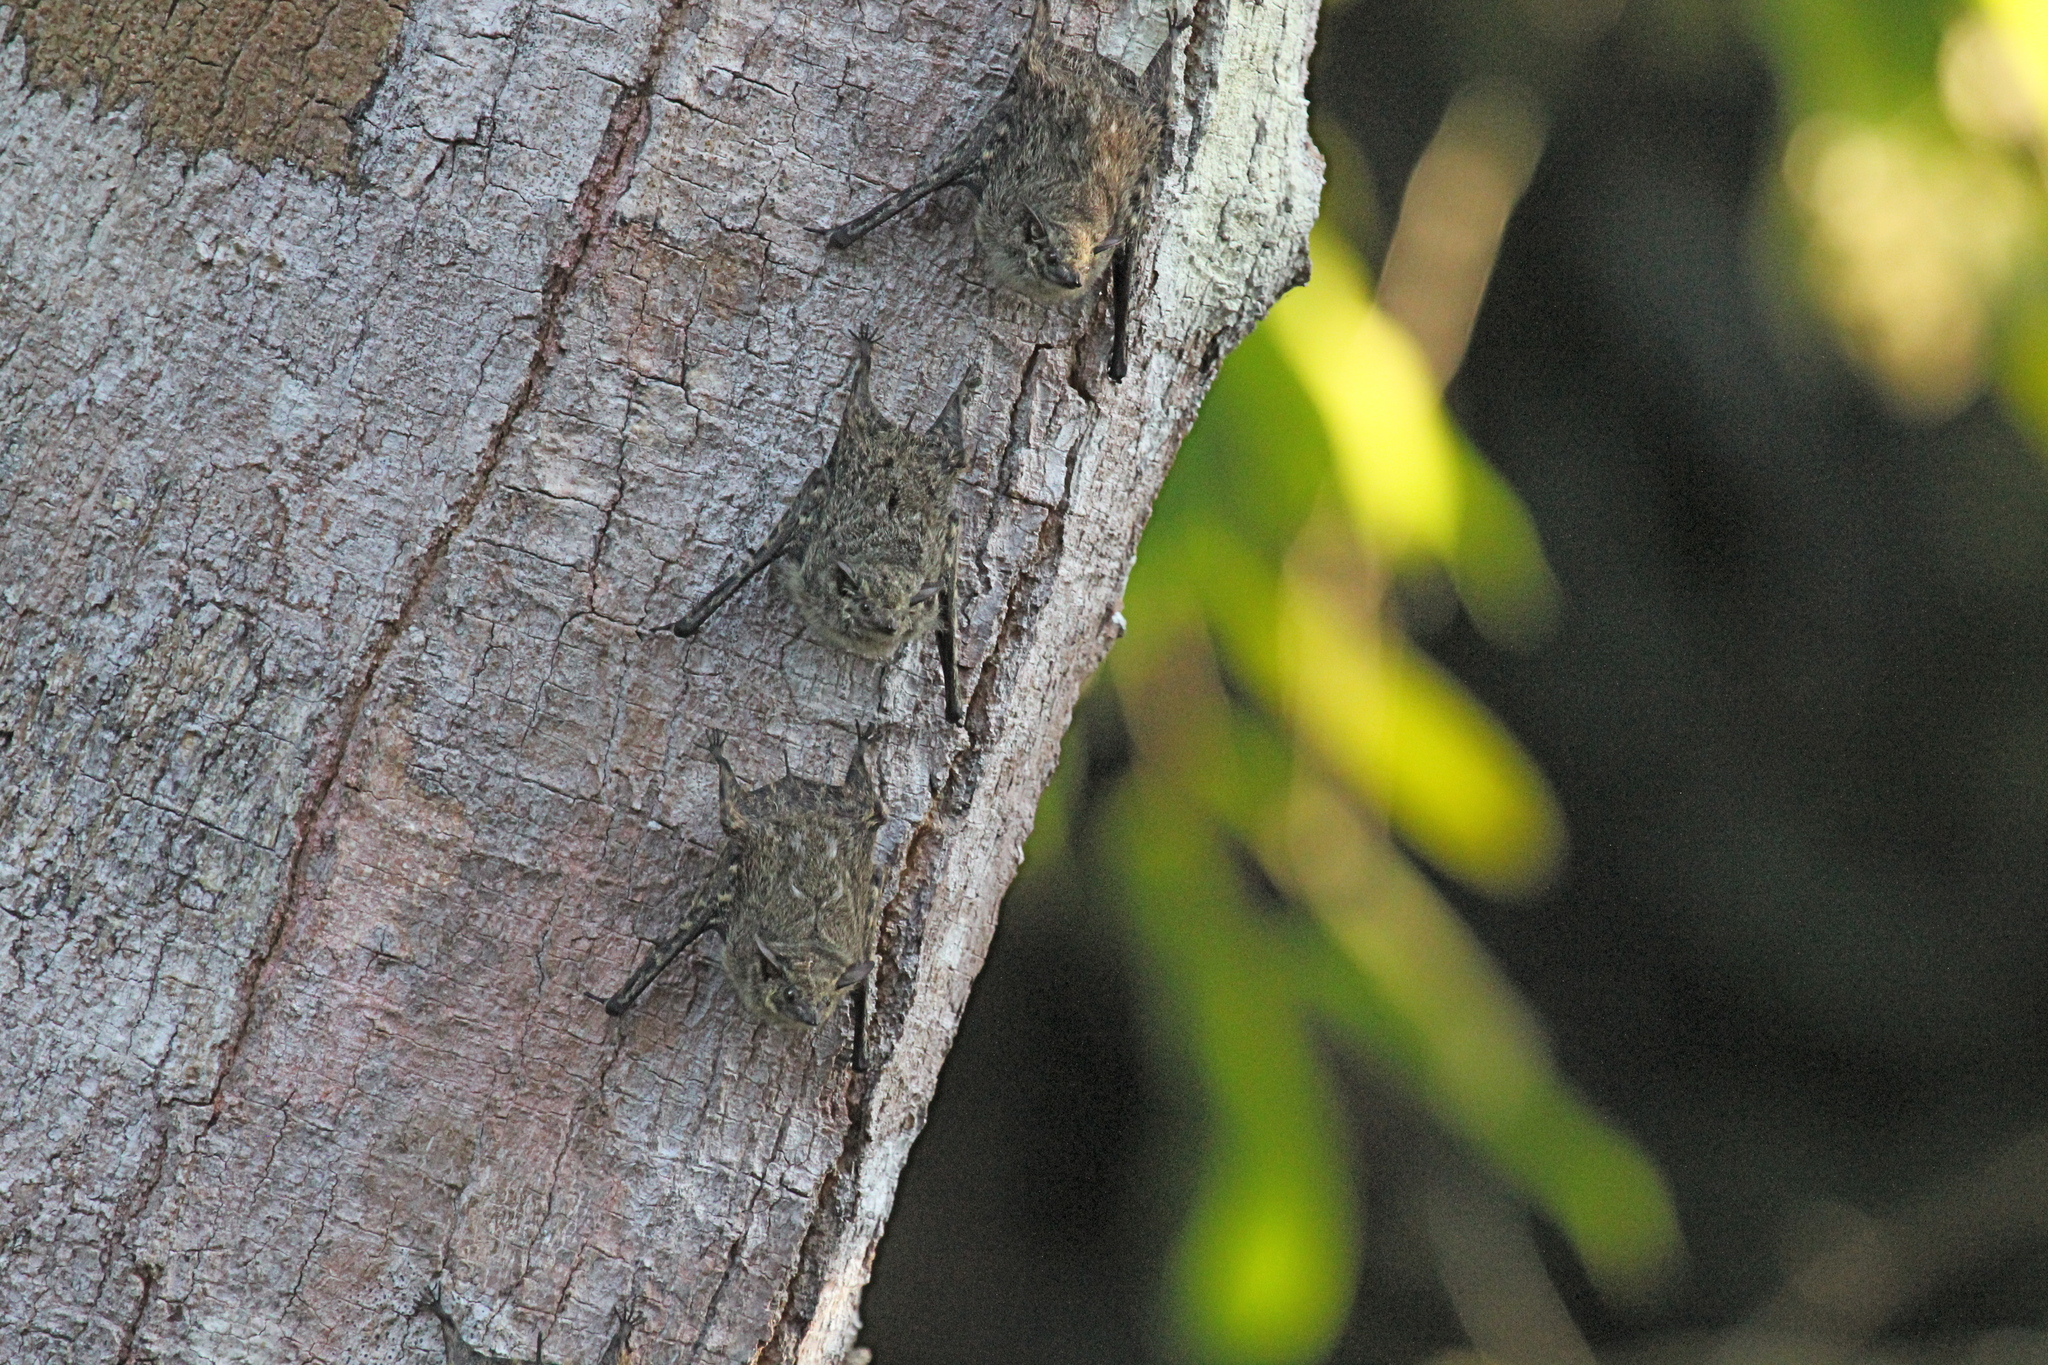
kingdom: Animalia
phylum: Chordata
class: Mammalia
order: Chiroptera
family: Emballonuridae
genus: Rhynchonycteris
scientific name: Rhynchonycteris naso
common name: Proboscis bat
